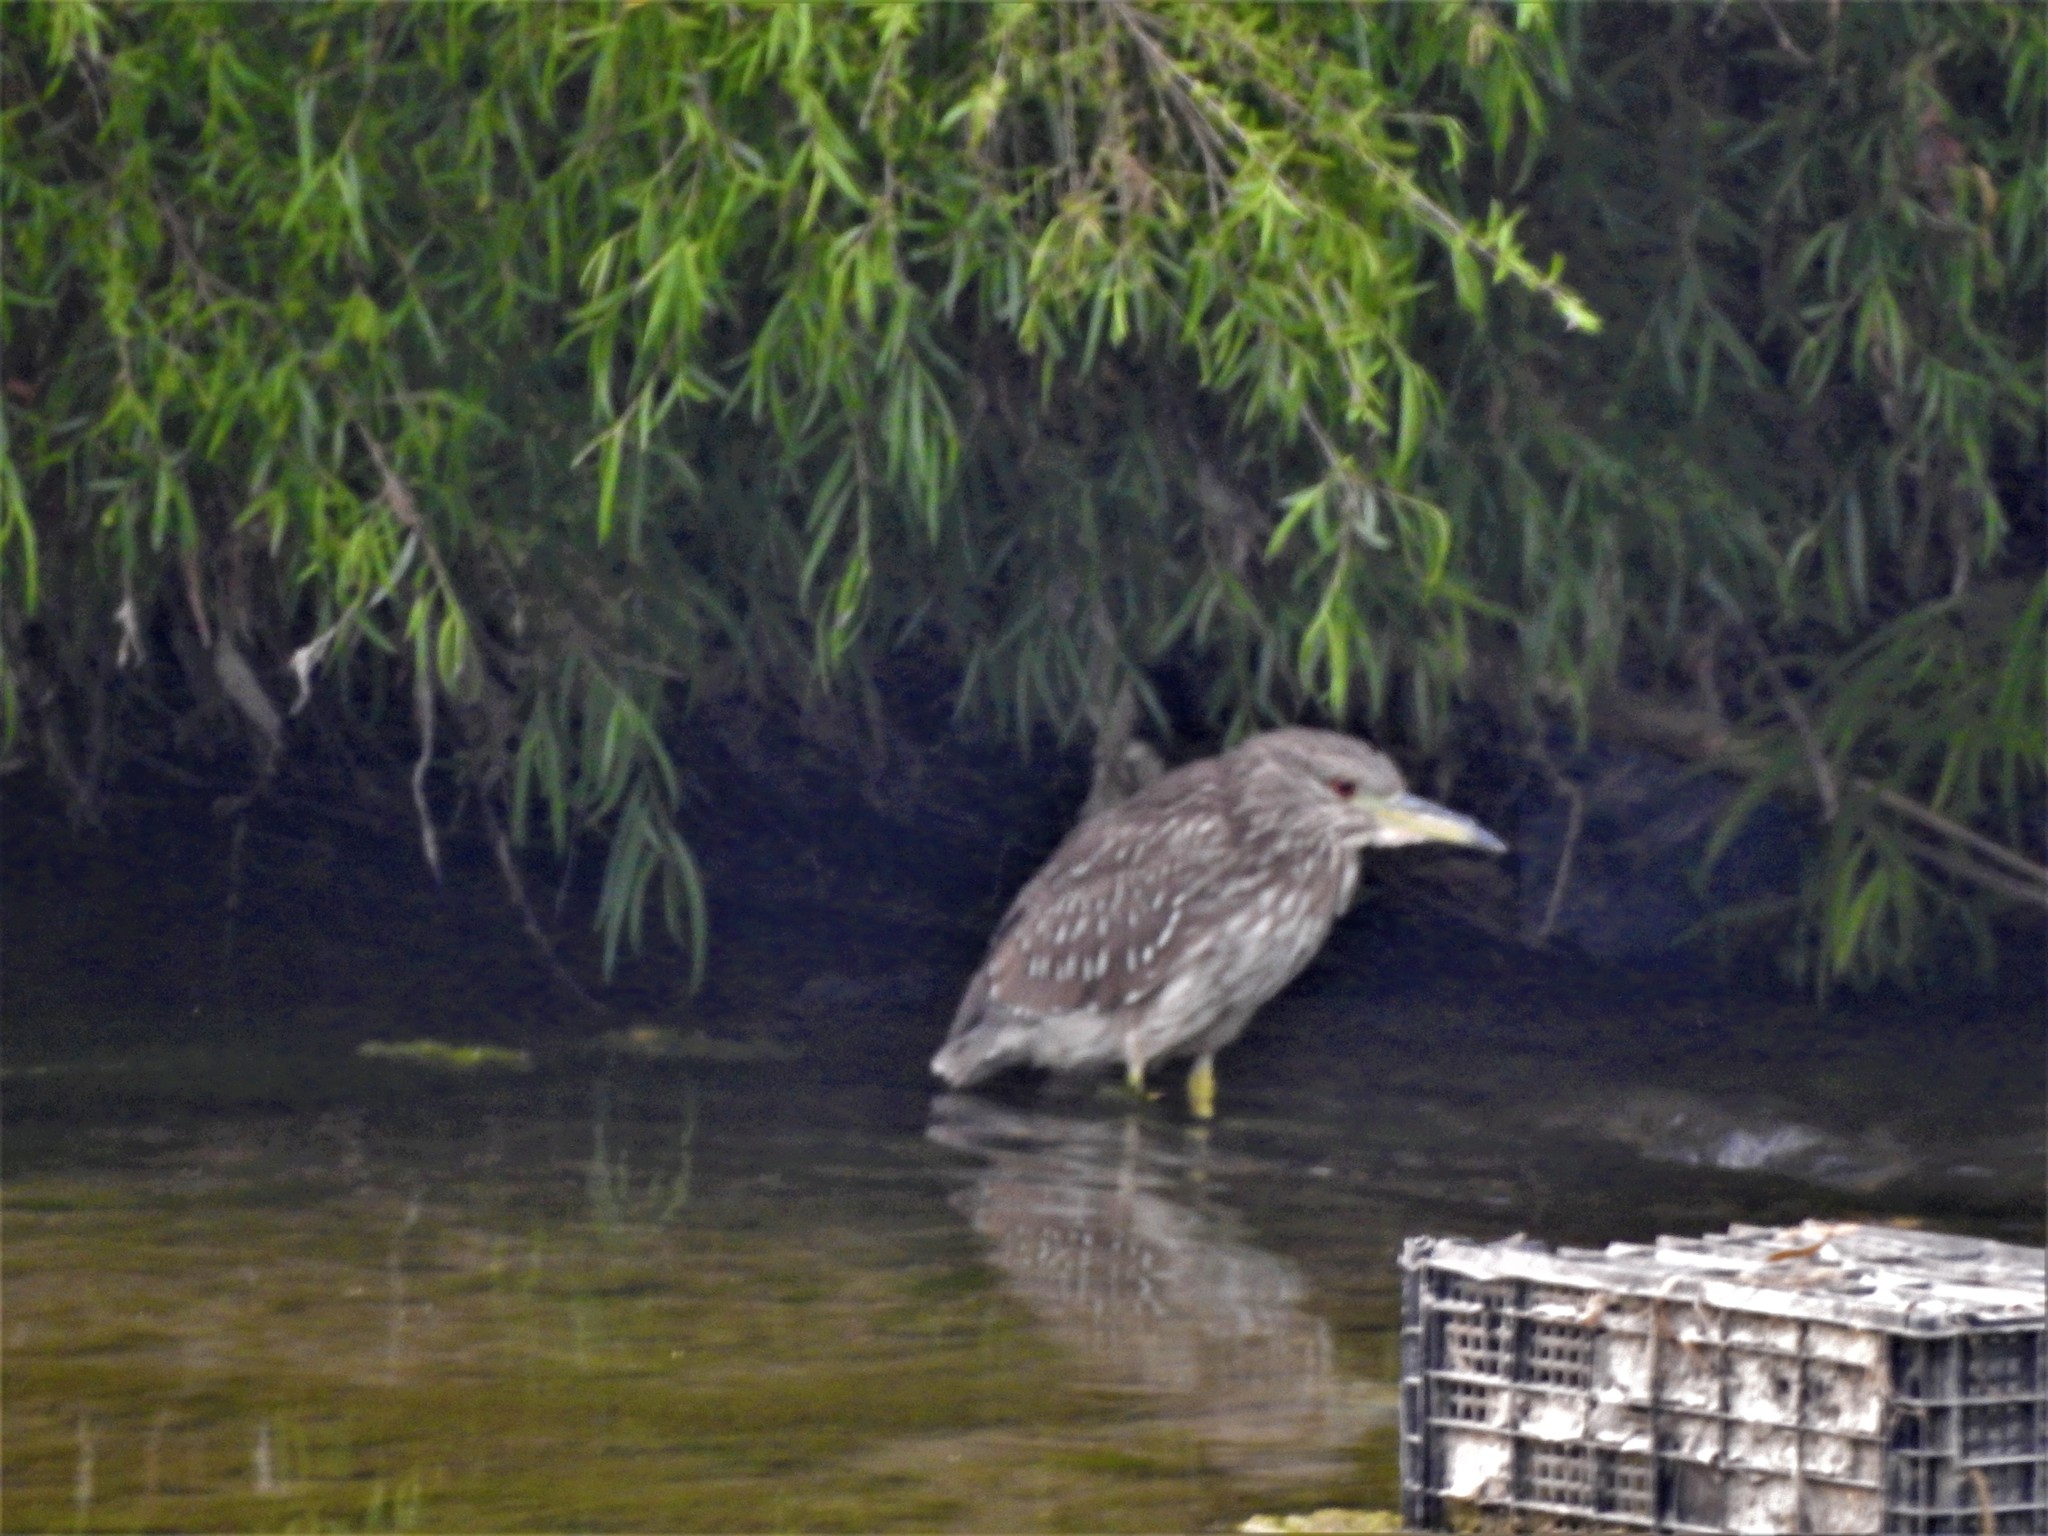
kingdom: Animalia
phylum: Chordata
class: Aves
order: Pelecaniformes
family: Ardeidae
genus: Nycticorax
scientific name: Nycticorax nycticorax
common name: Black-crowned night heron
